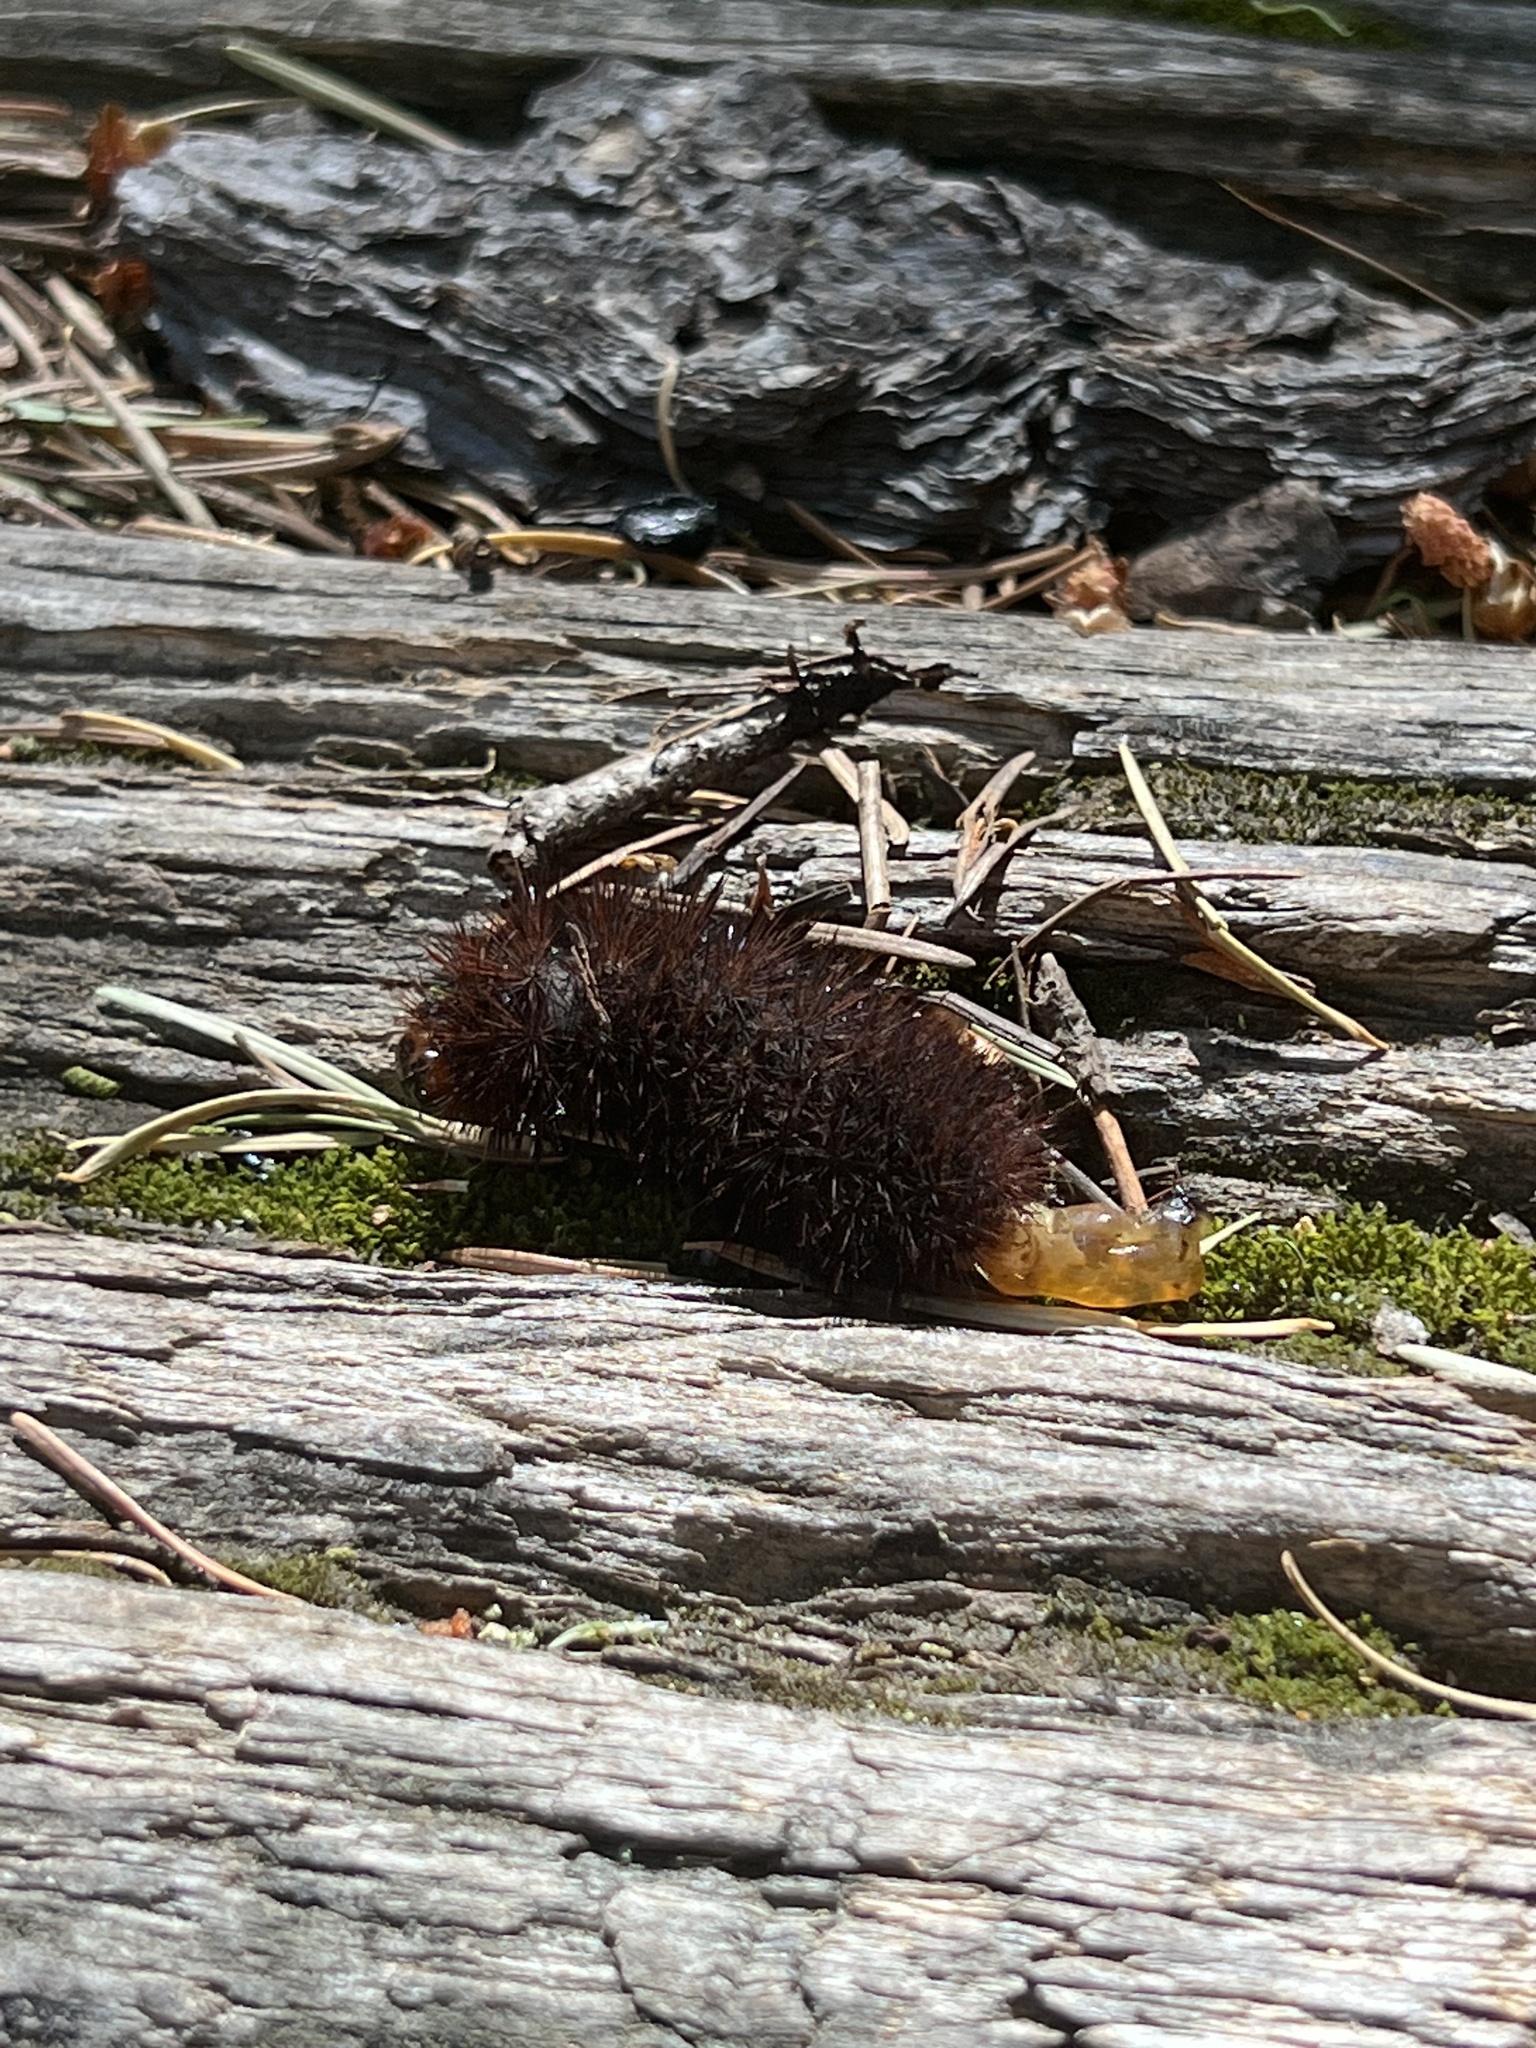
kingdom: Animalia
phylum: Arthropoda
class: Insecta
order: Lepidoptera
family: Erebidae
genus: Arachnis
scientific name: Arachnis picta
